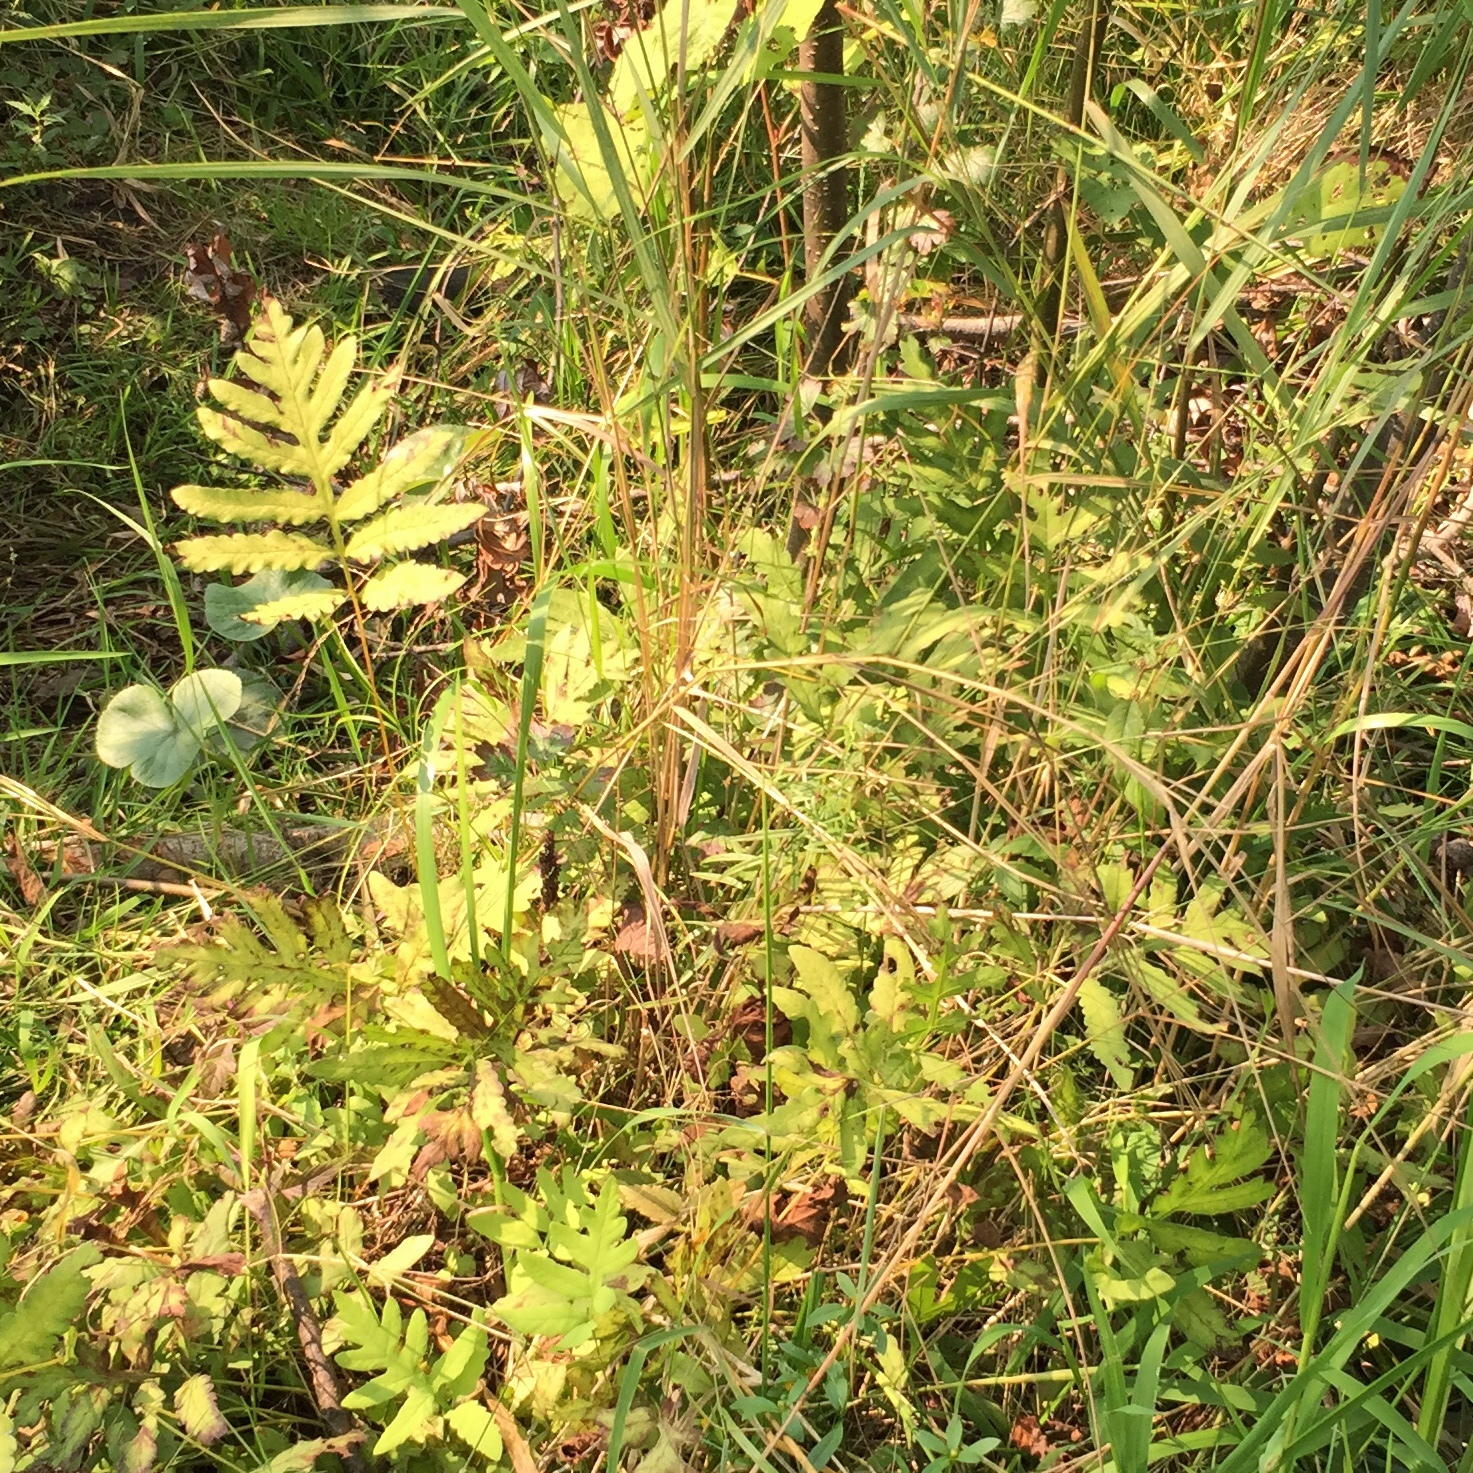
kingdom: Plantae
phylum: Tracheophyta
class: Polypodiopsida
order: Polypodiales
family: Onocleaceae
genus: Onoclea
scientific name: Onoclea sensibilis
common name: Sensitive fern
